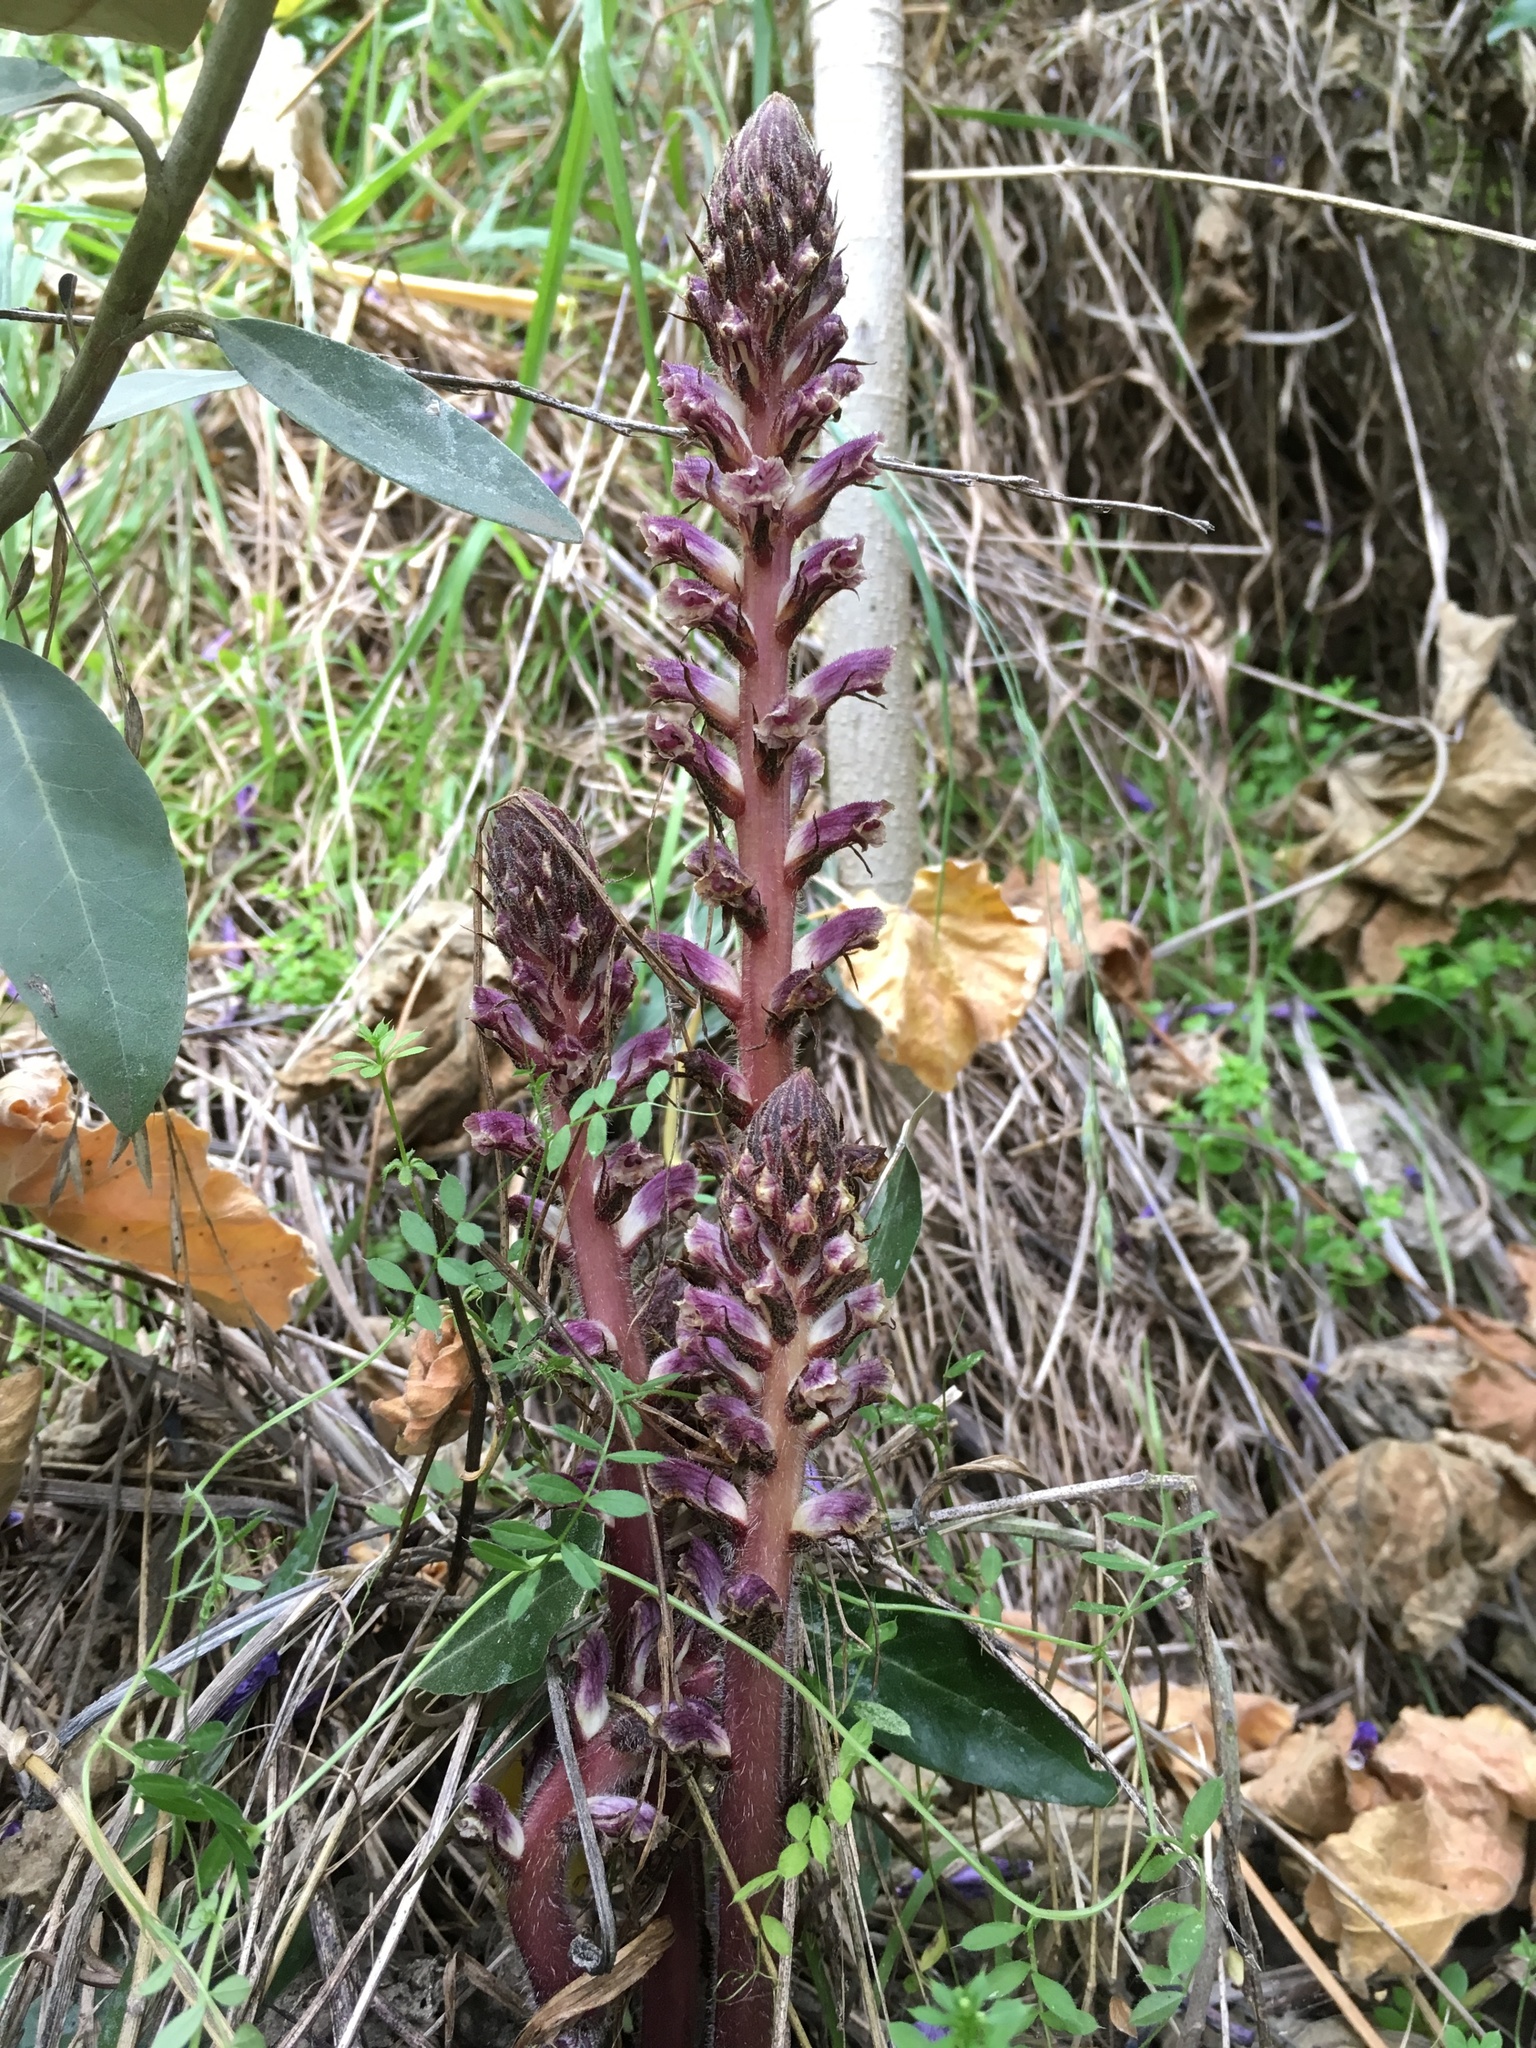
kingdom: Plantae
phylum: Tracheophyta
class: Magnoliopsida
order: Lamiales
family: Orobanchaceae
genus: Orobanche
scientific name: Orobanche minor
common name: Common broomrape
